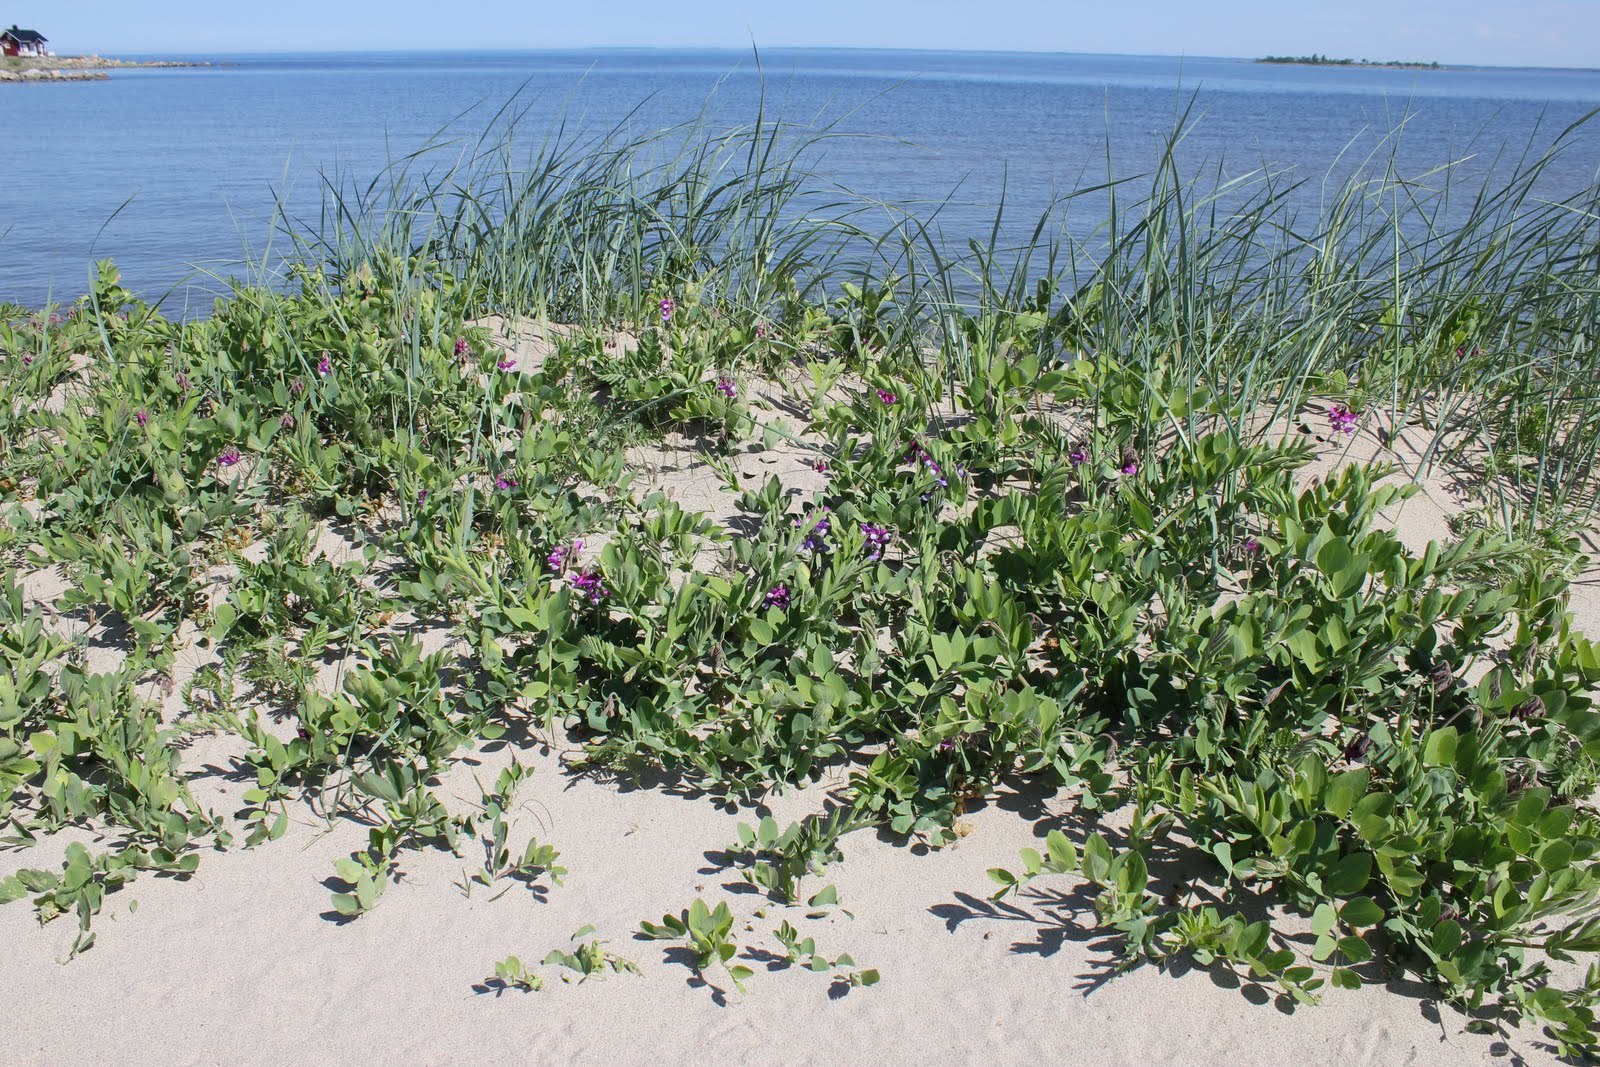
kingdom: Plantae
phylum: Tracheophyta
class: Magnoliopsida
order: Fabales
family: Fabaceae
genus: Lathyrus
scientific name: Lathyrus japonicus
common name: Sea pea
